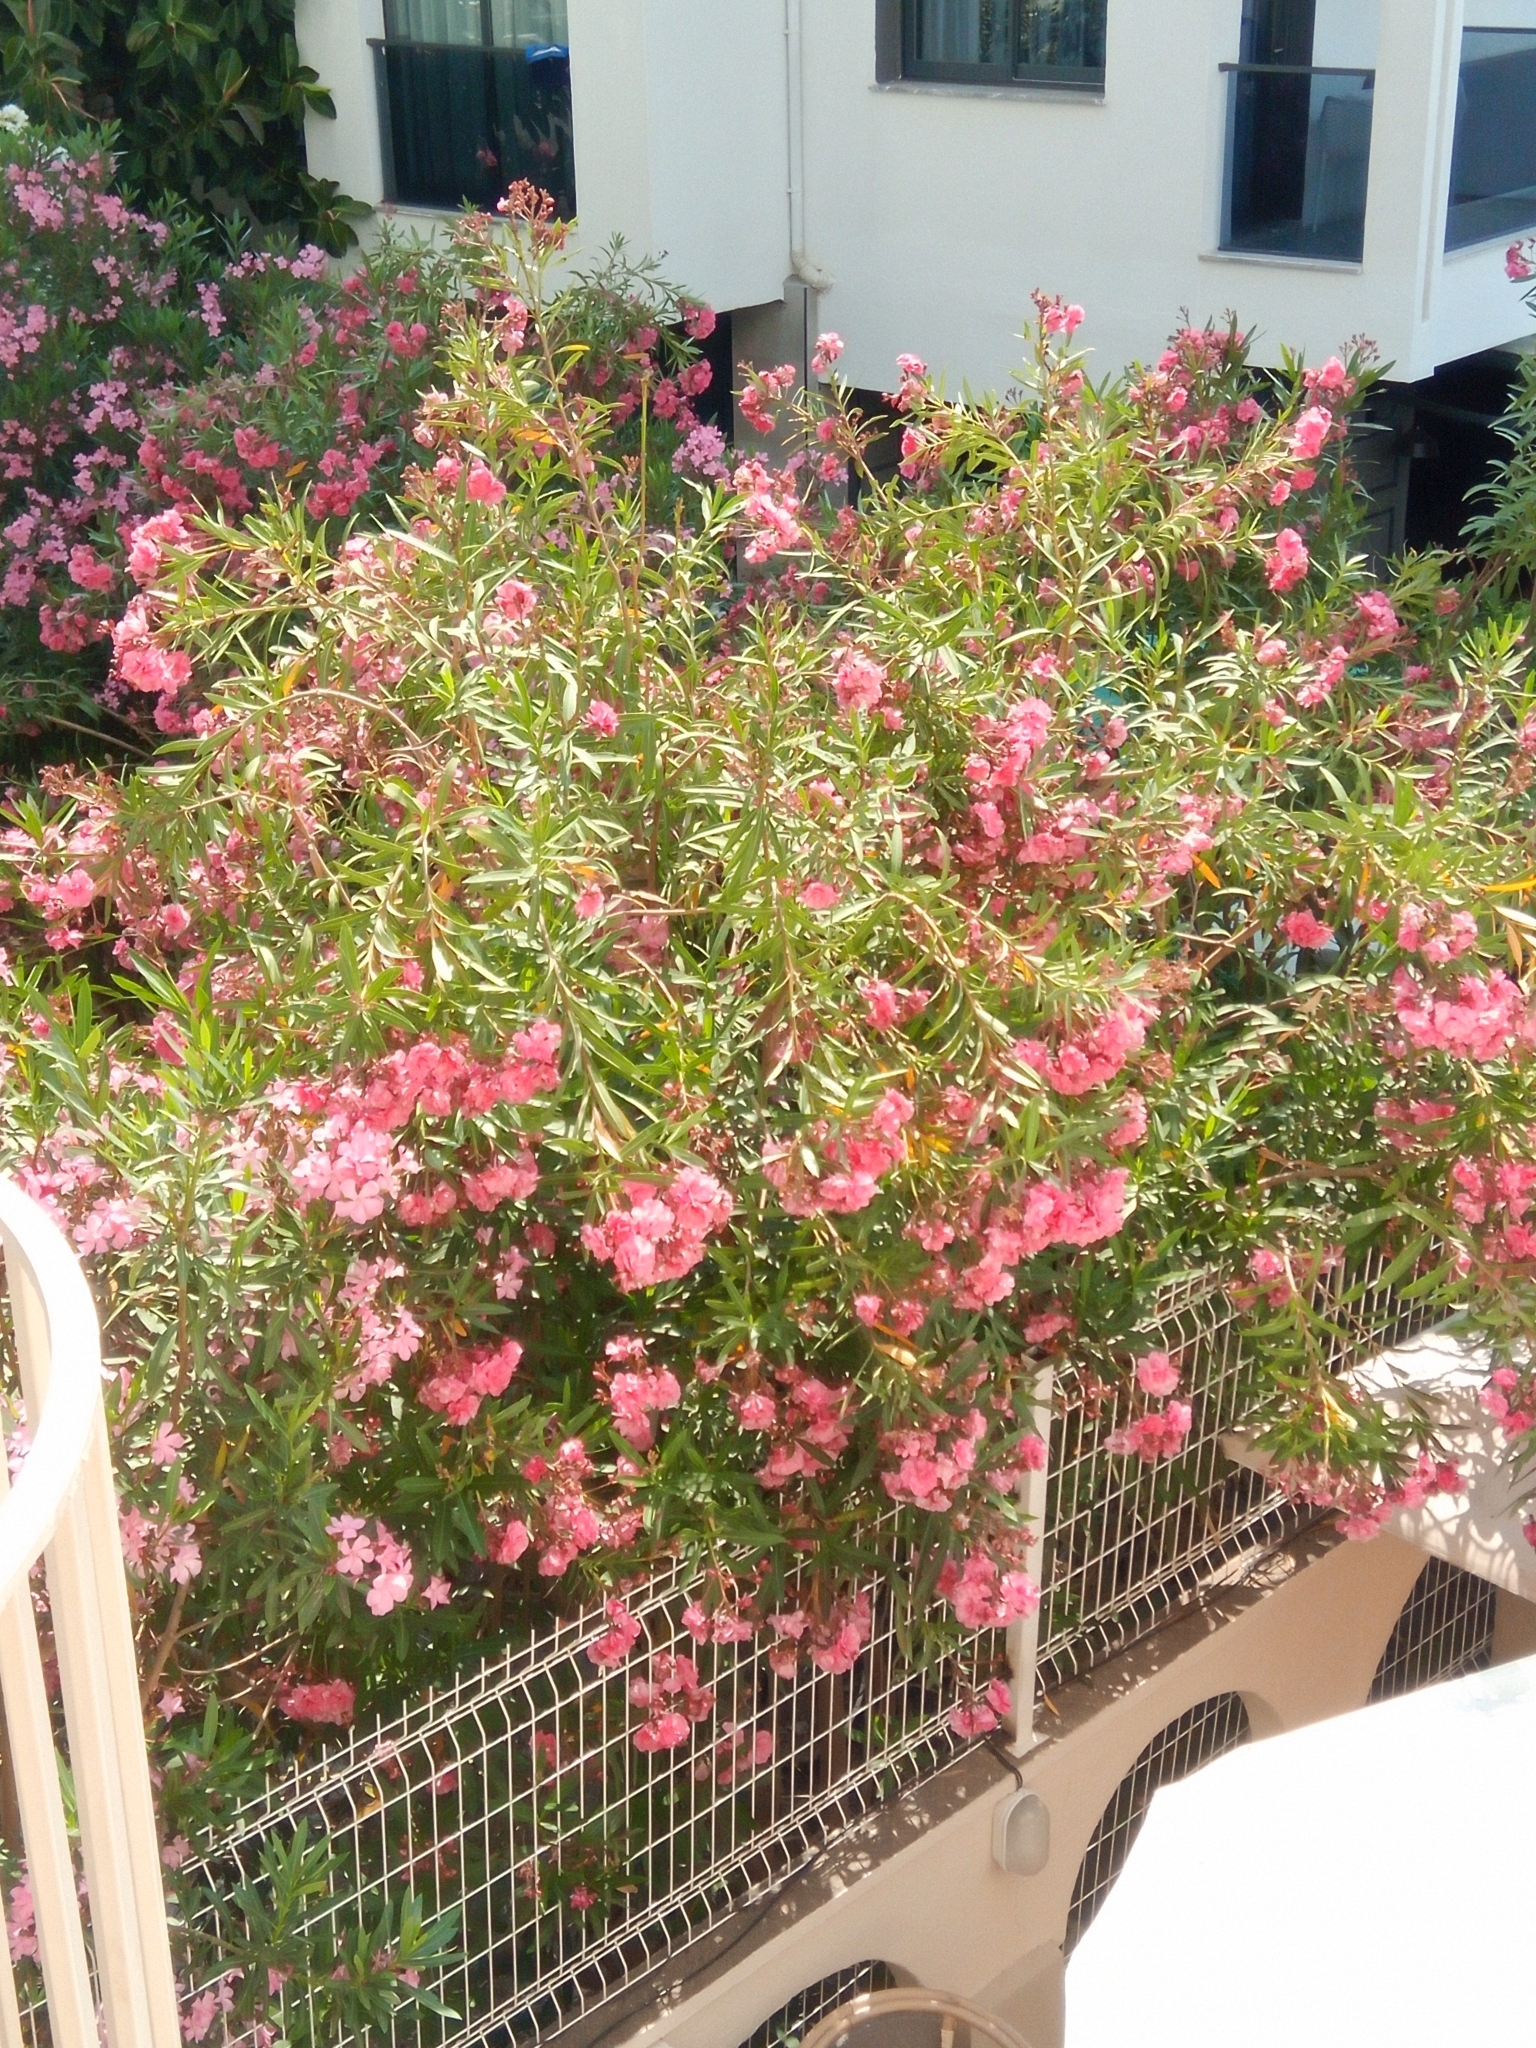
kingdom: Plantae
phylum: Tracheophyta
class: Magnoliopsida
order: Gentianales
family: Apocynaceae
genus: Nerium
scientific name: Nerium oleander
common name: Oleander
